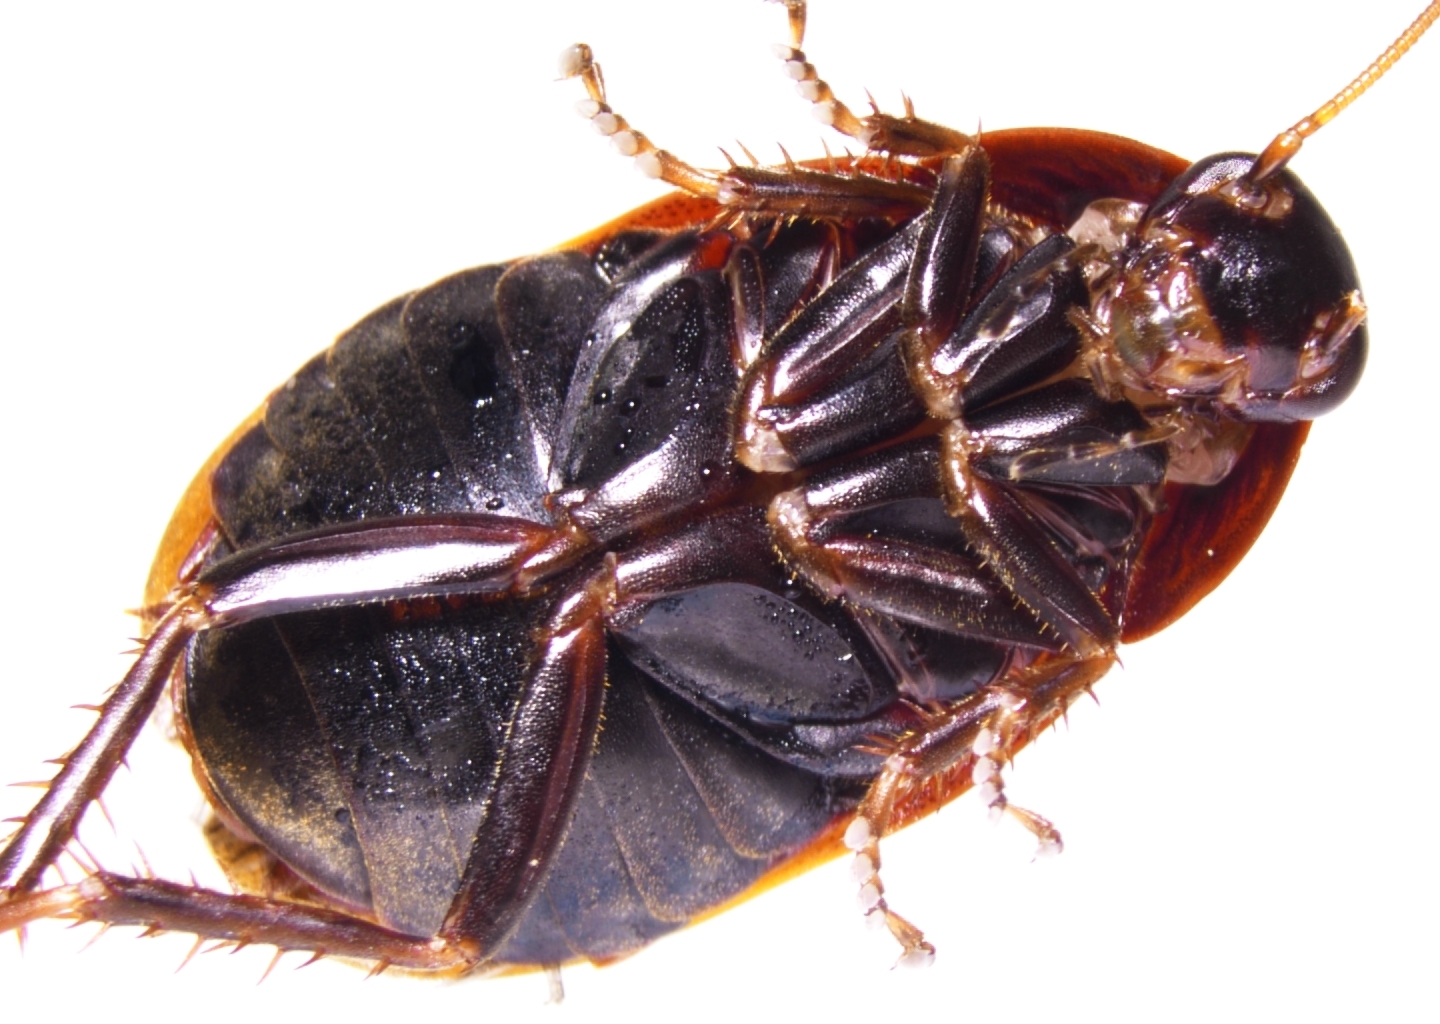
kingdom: Animalia
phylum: Arthropoda
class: Insecta
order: Blattodea
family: Blaberidae
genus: Diploptera
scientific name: Diploptera punctata
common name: Pacific beetle cockroach
